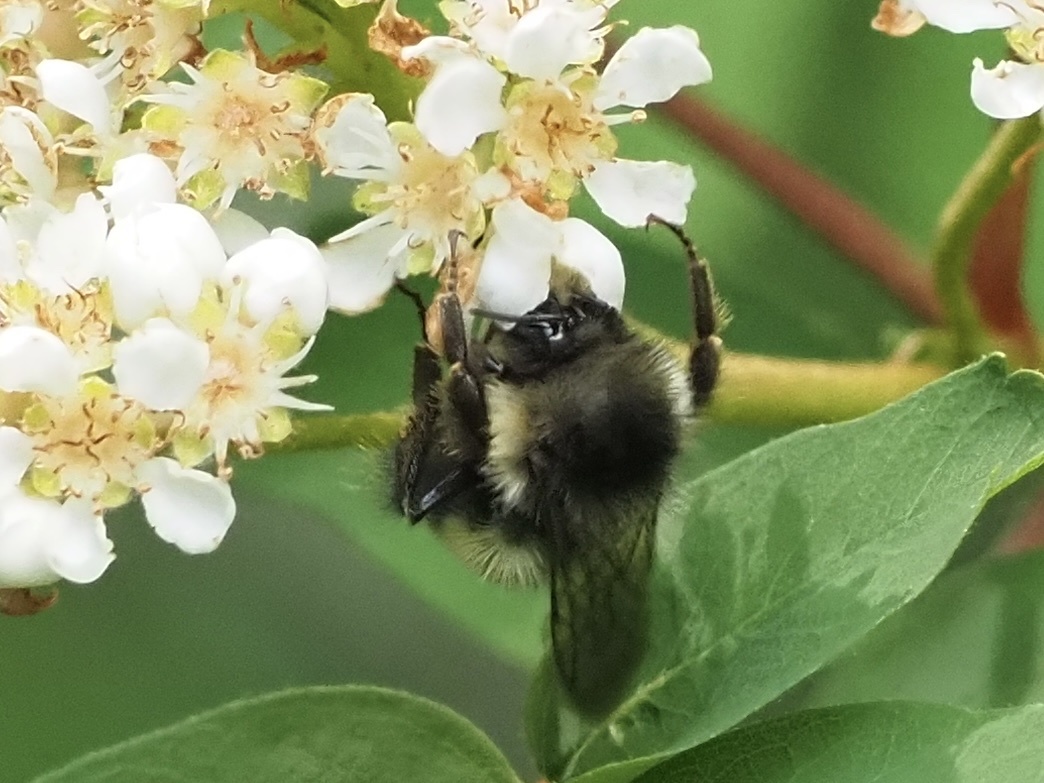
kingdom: Animalia
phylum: Arthropoda
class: Insecta
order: Hymenoptera
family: Apidae
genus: Bombus
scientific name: Bombus flavifrons
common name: Yellow head bumble bee
